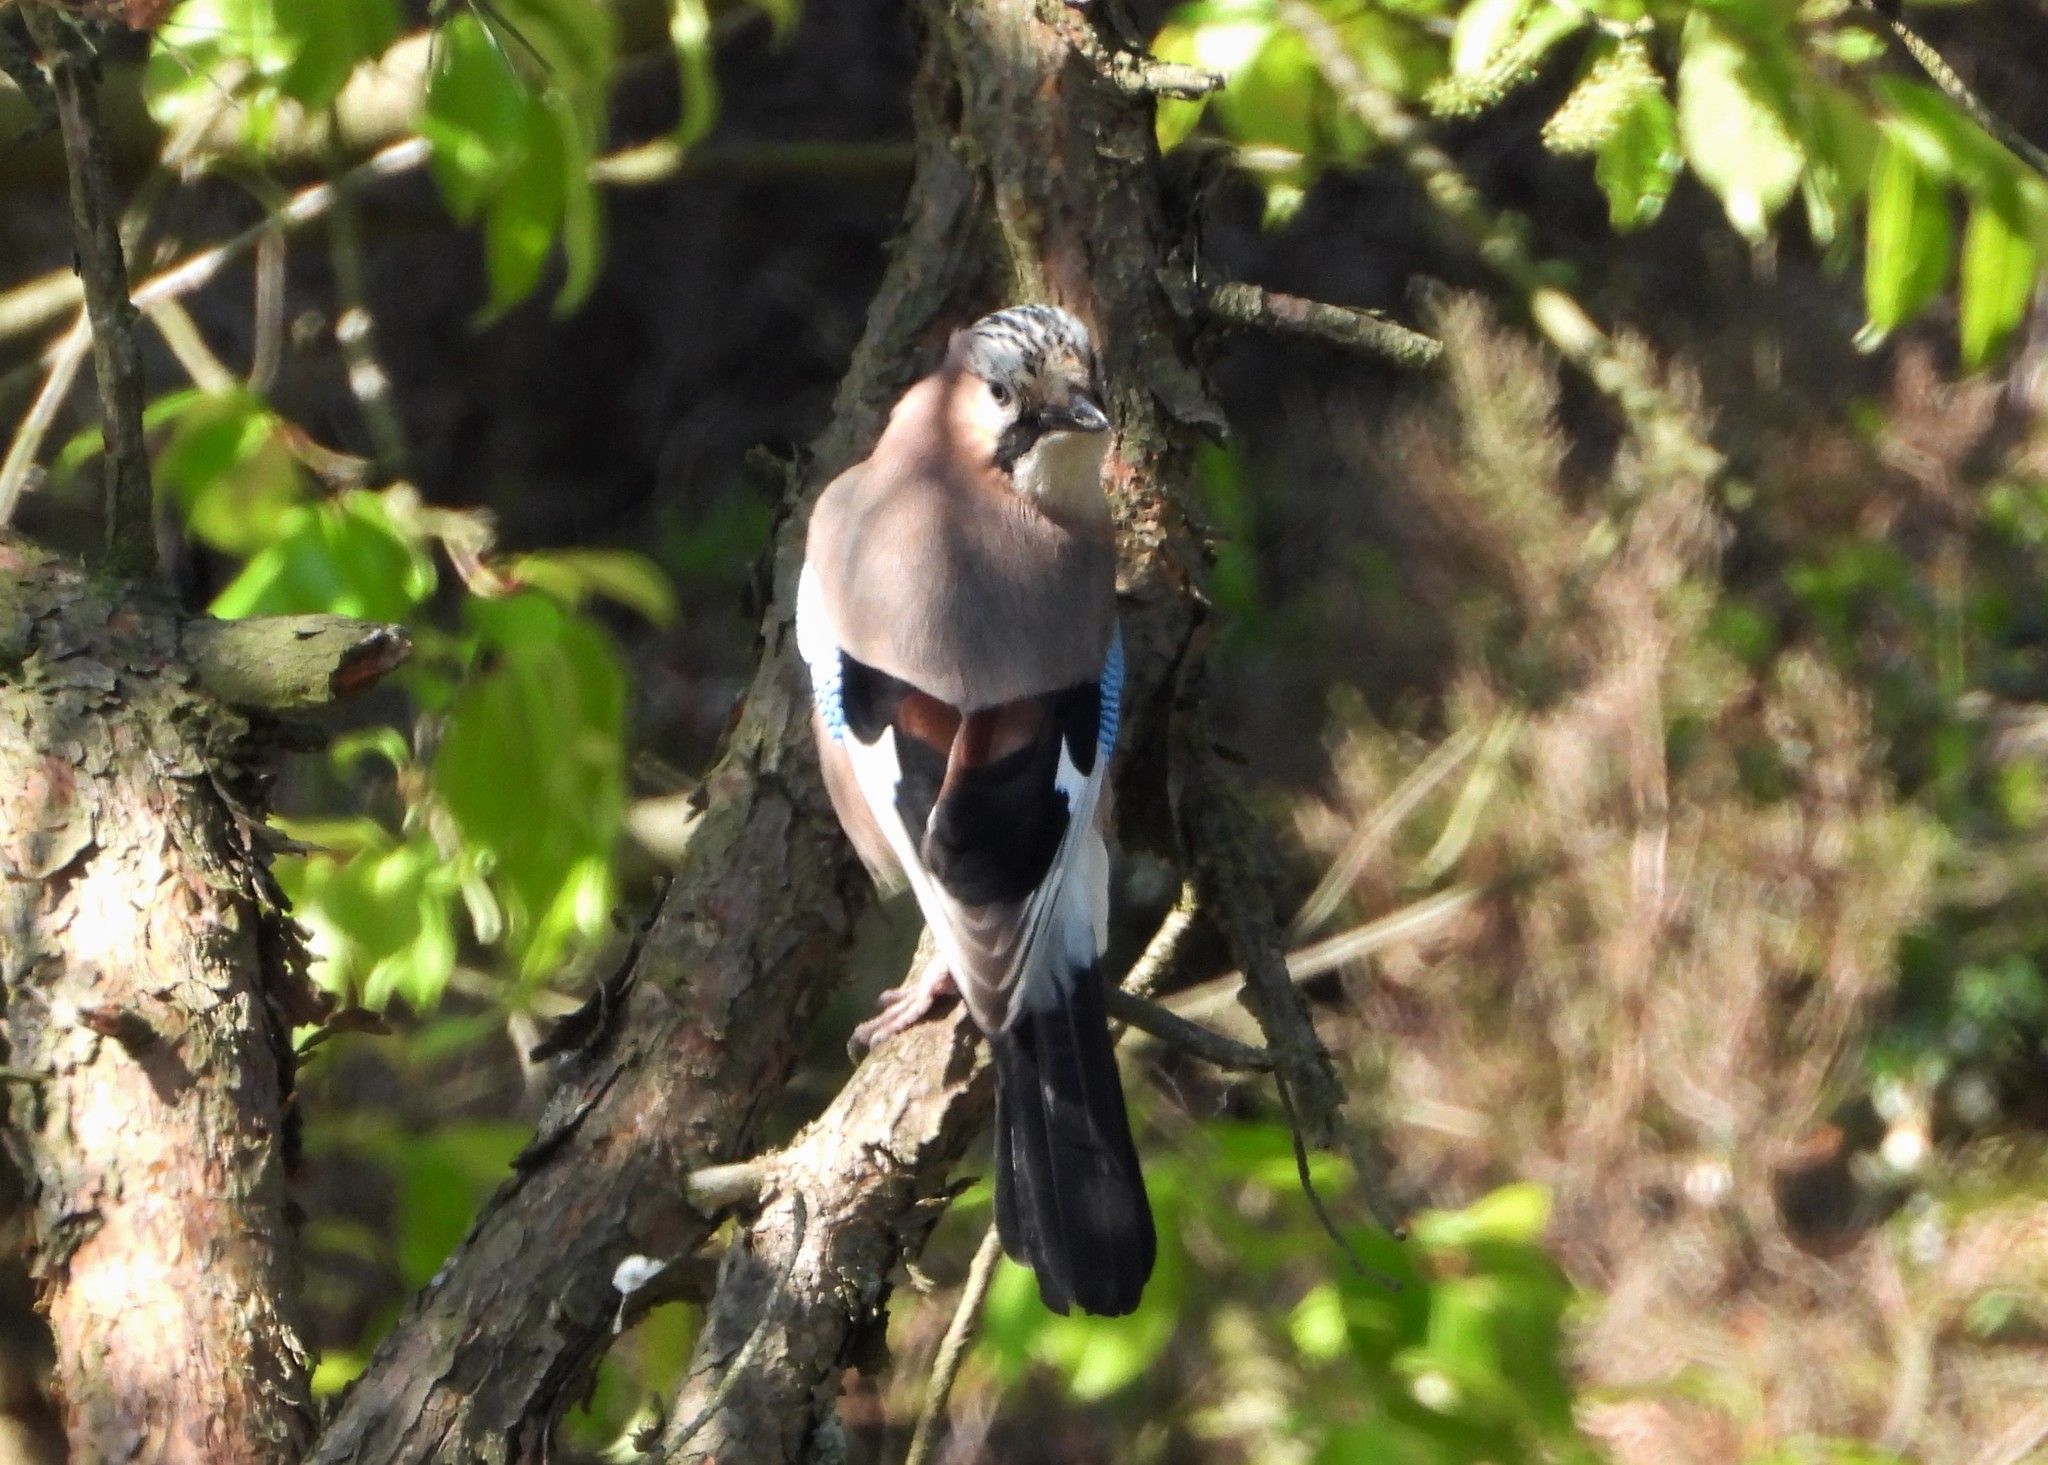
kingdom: Animalia
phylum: Chordata
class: Aves
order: Passeriformes
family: Corvidae
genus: Garrulus
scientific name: Garrulus glandarius
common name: Eurasian jay
